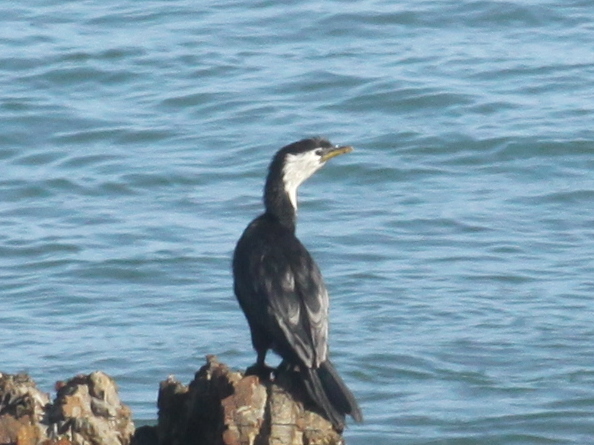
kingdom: Animalia
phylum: Chordata
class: Aves
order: Suliformes
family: Phalacrocoracidae
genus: Microcarbo
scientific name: Microcarbo melanoleucos
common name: Little pied cormorant
